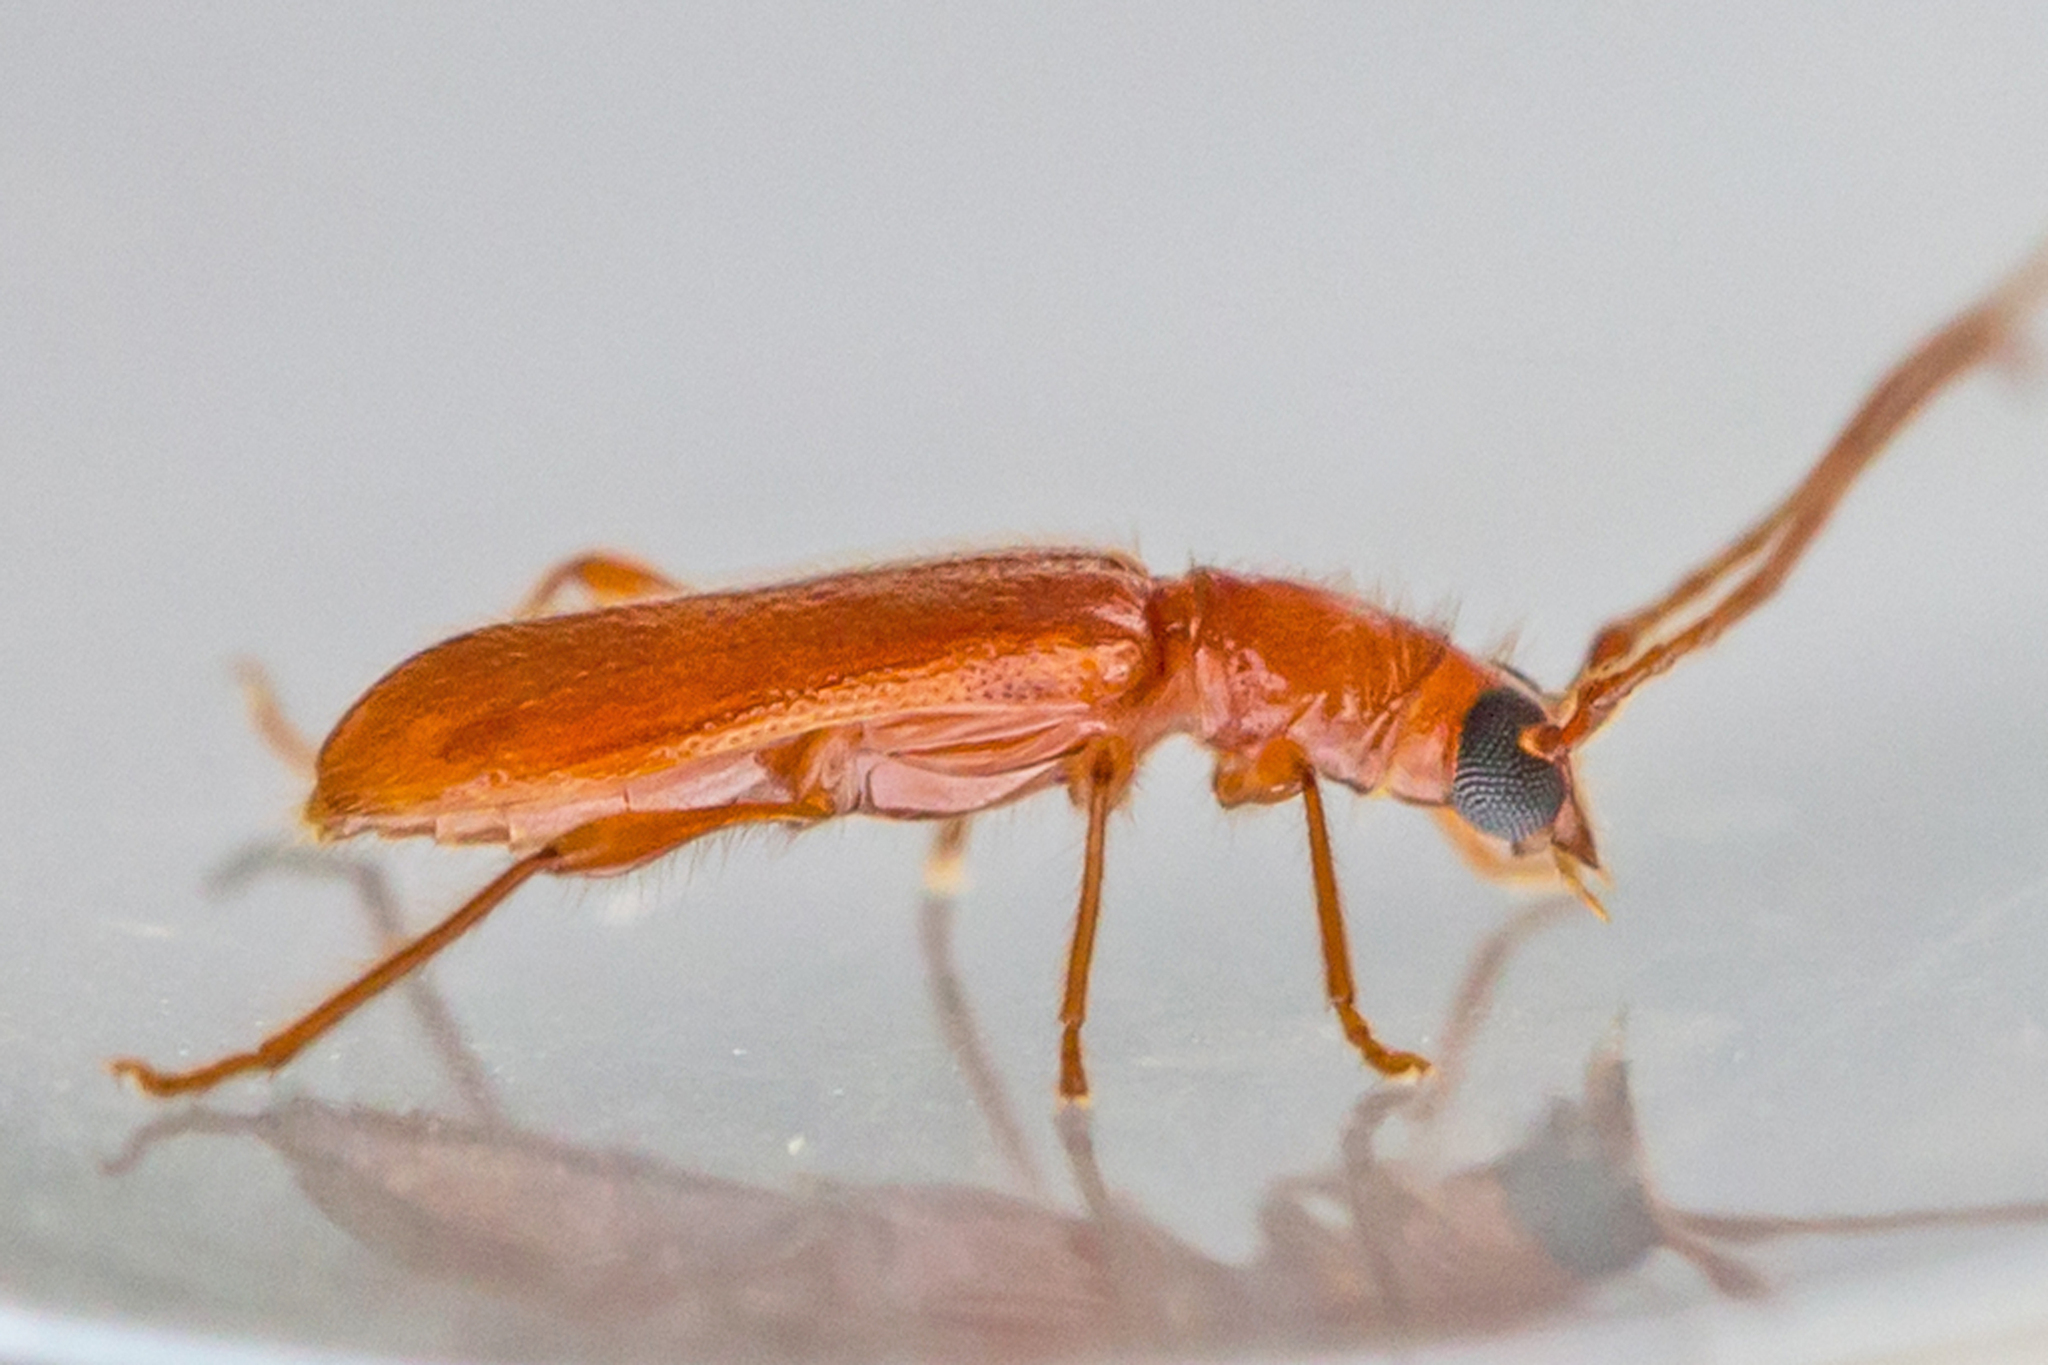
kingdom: Animalia
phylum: Arthropoda
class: Insecta
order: Coleoptera
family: Cerambycidae
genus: Obrium
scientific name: Obrium rufulum
